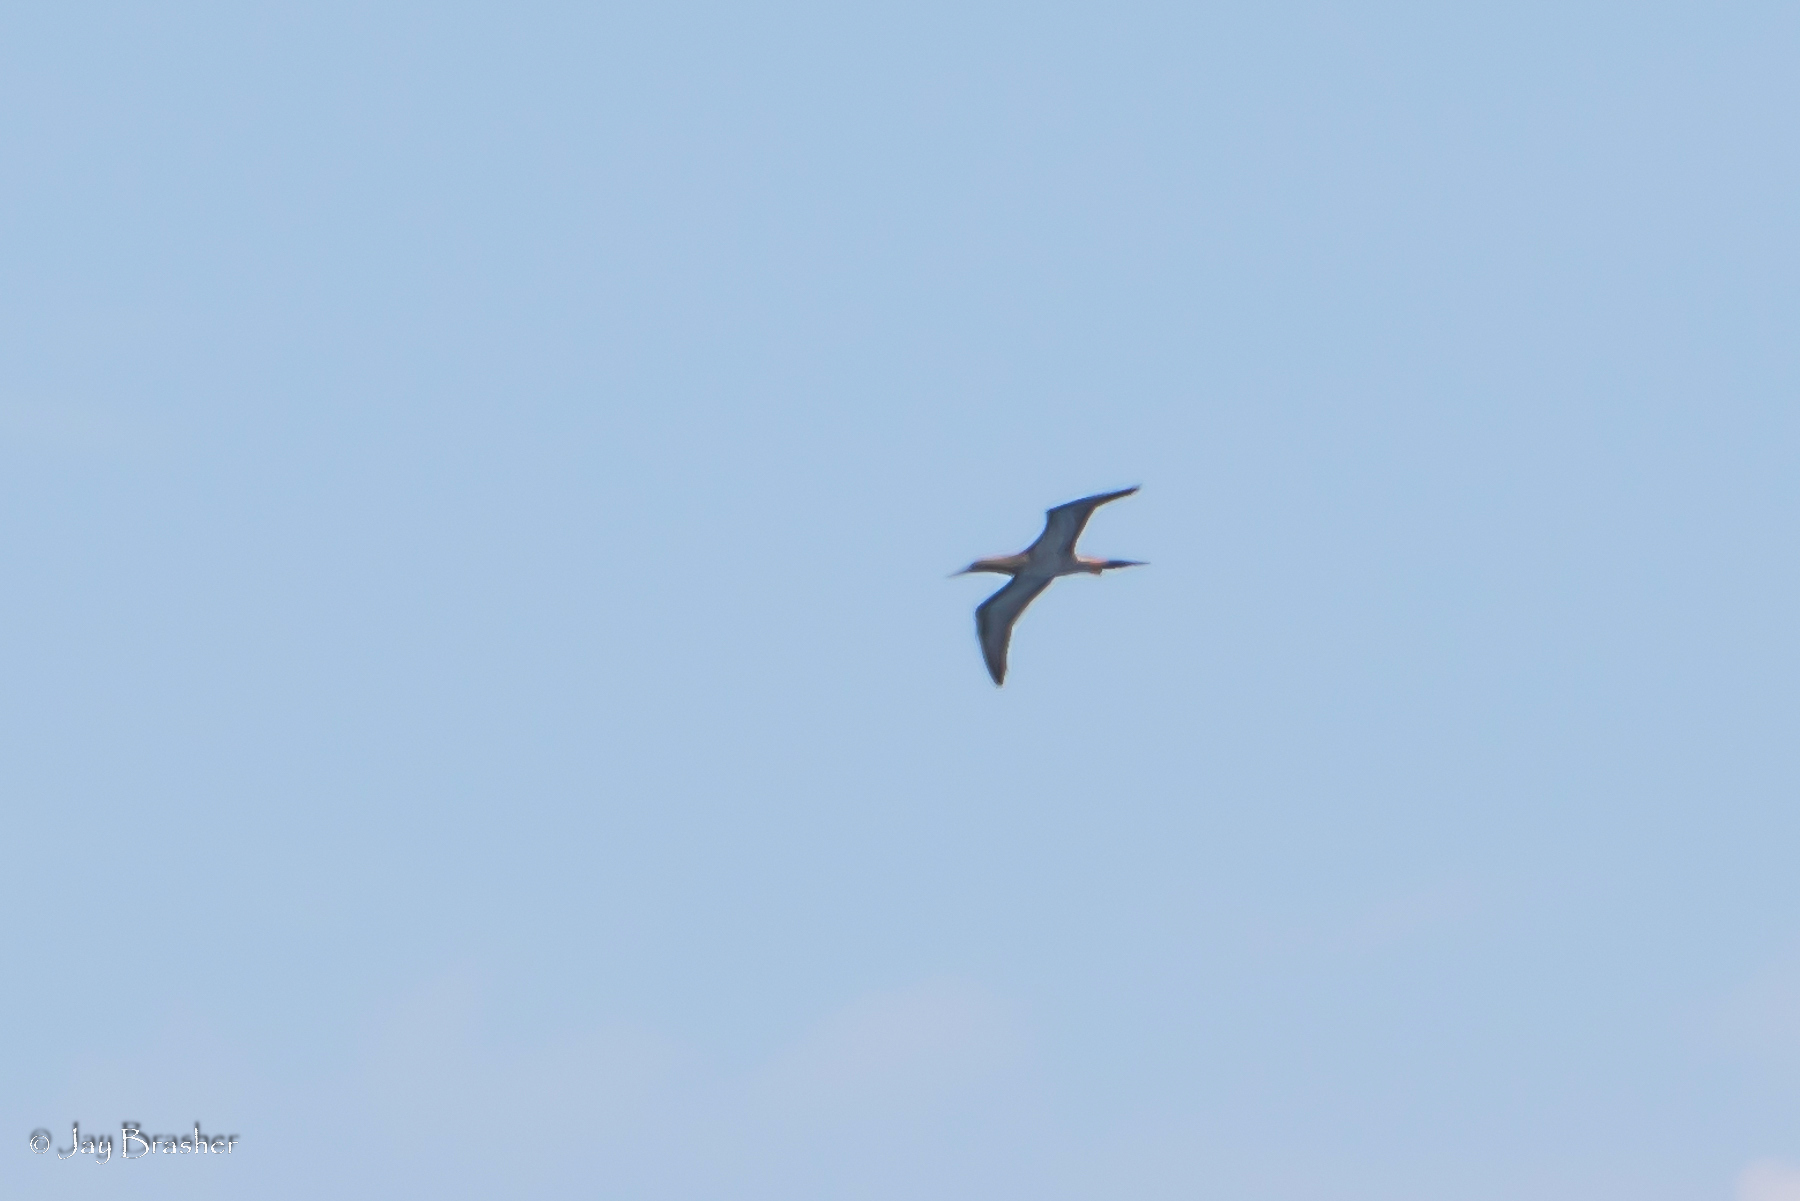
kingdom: Animalia
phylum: Chordata
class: Aves
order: Suliformes
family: Sulidae
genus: Sula
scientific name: Sula leucogaster
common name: Brown booby
